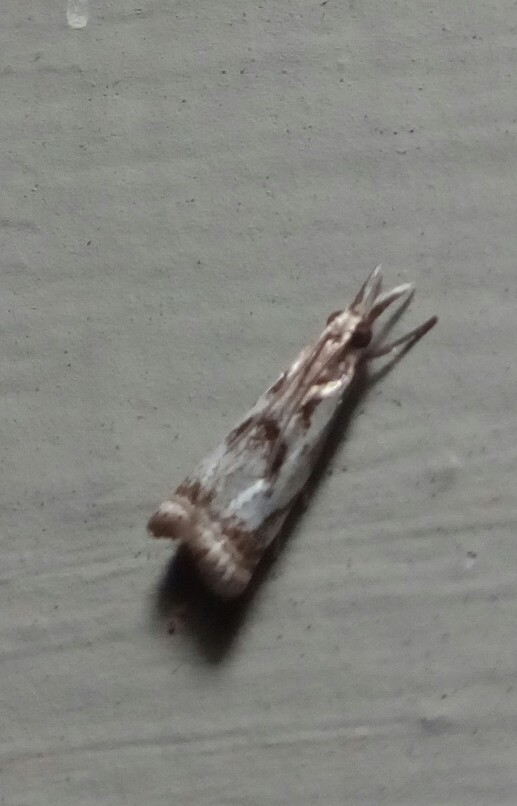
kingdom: Animalia
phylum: Arthropoda
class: Insecta
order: Lepidoptera
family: Crambidae
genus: Microcrambus
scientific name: Microcrambus elegans
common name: Elegant grass-veneer
